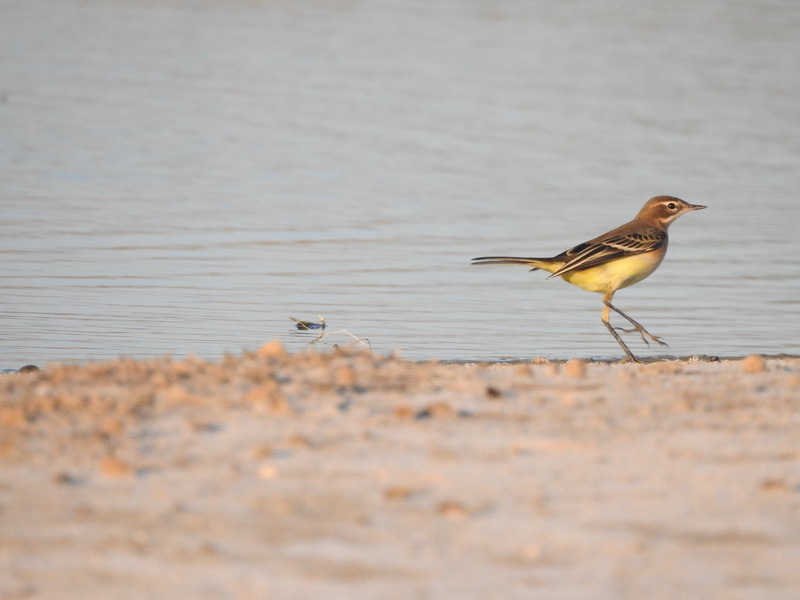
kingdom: Animalia
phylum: Chordata
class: Aves
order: Passeriformes
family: Motacillidae
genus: Motacilla
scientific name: Motacilla flava
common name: Western yellow wagtail
